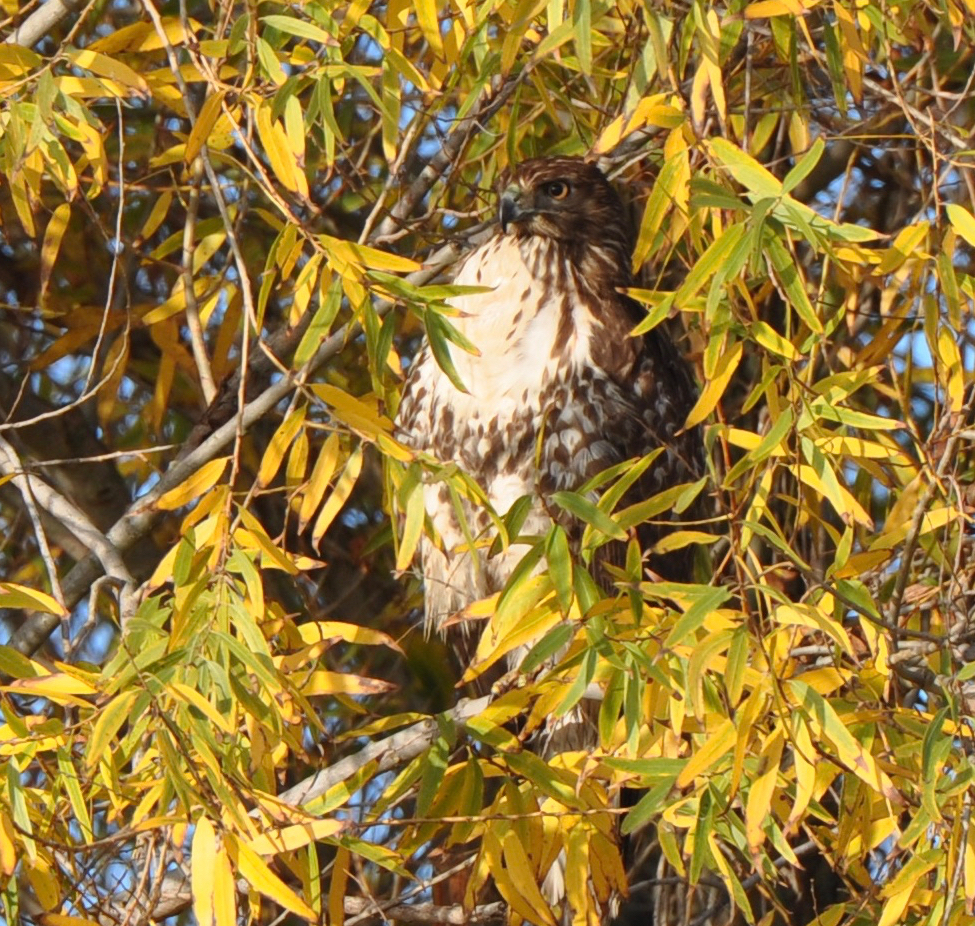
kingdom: Animalia
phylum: Chordata
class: Aves
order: Accipitriformes
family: Accipitridae
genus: Buteo
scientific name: Buteo jamaicensis
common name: Red-tailed hawk
